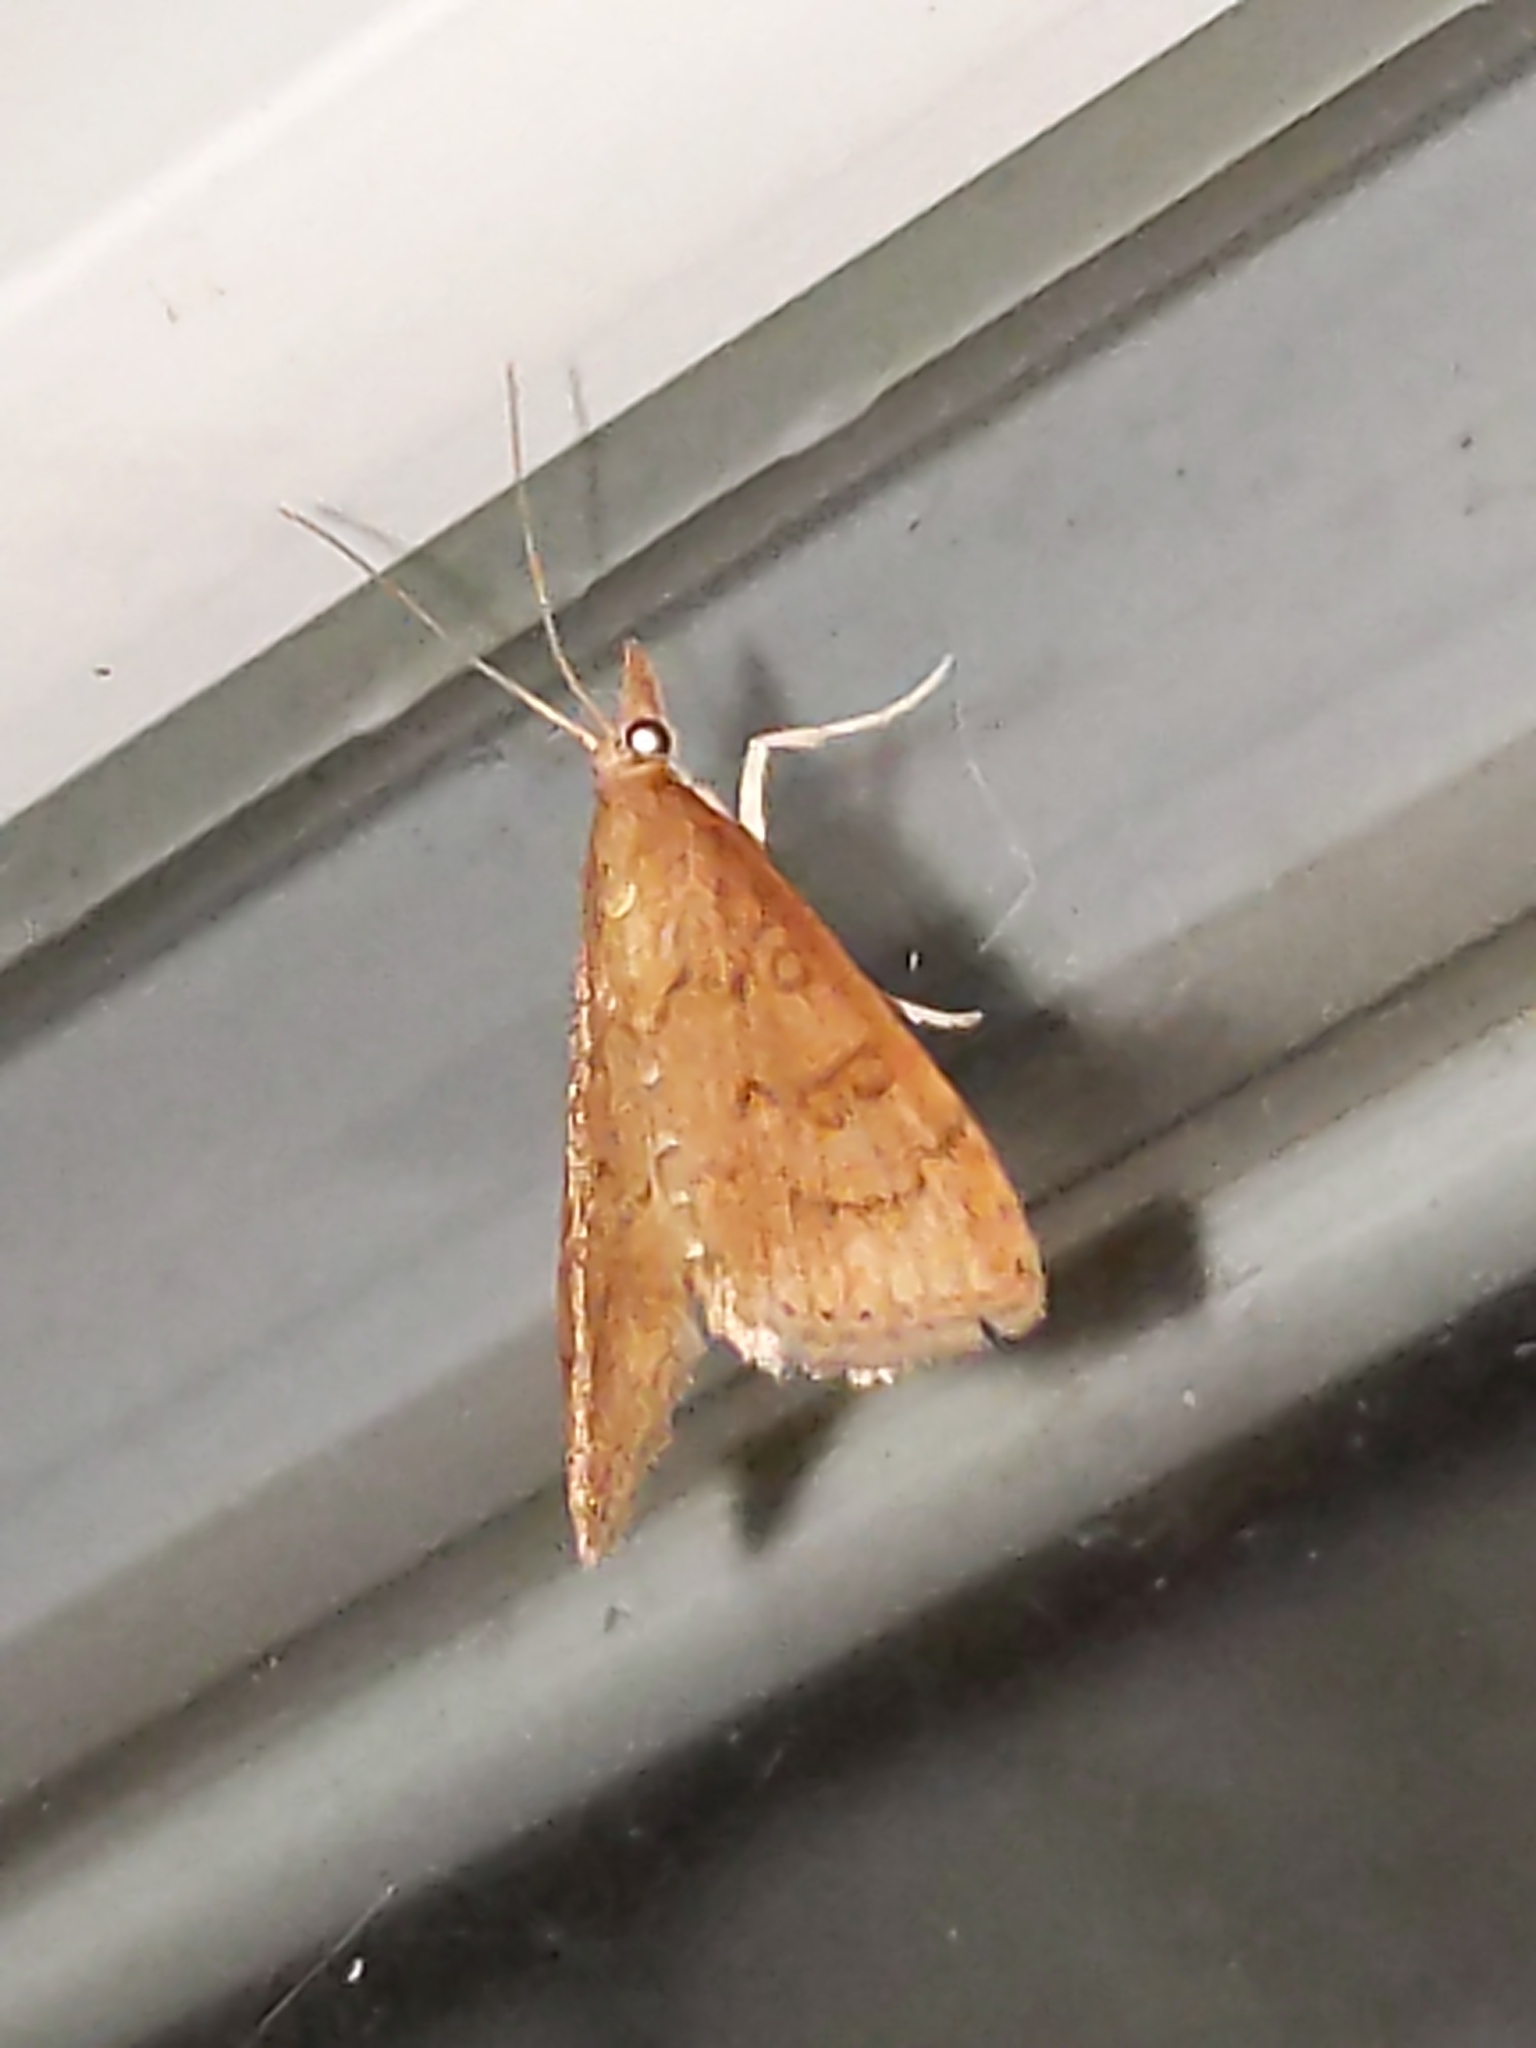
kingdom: Animalia
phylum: Arthropoda
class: Insecta
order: Lepidoptera
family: Crambidae
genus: Udea
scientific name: Udea rubigalis
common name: Celery leaftier moth
